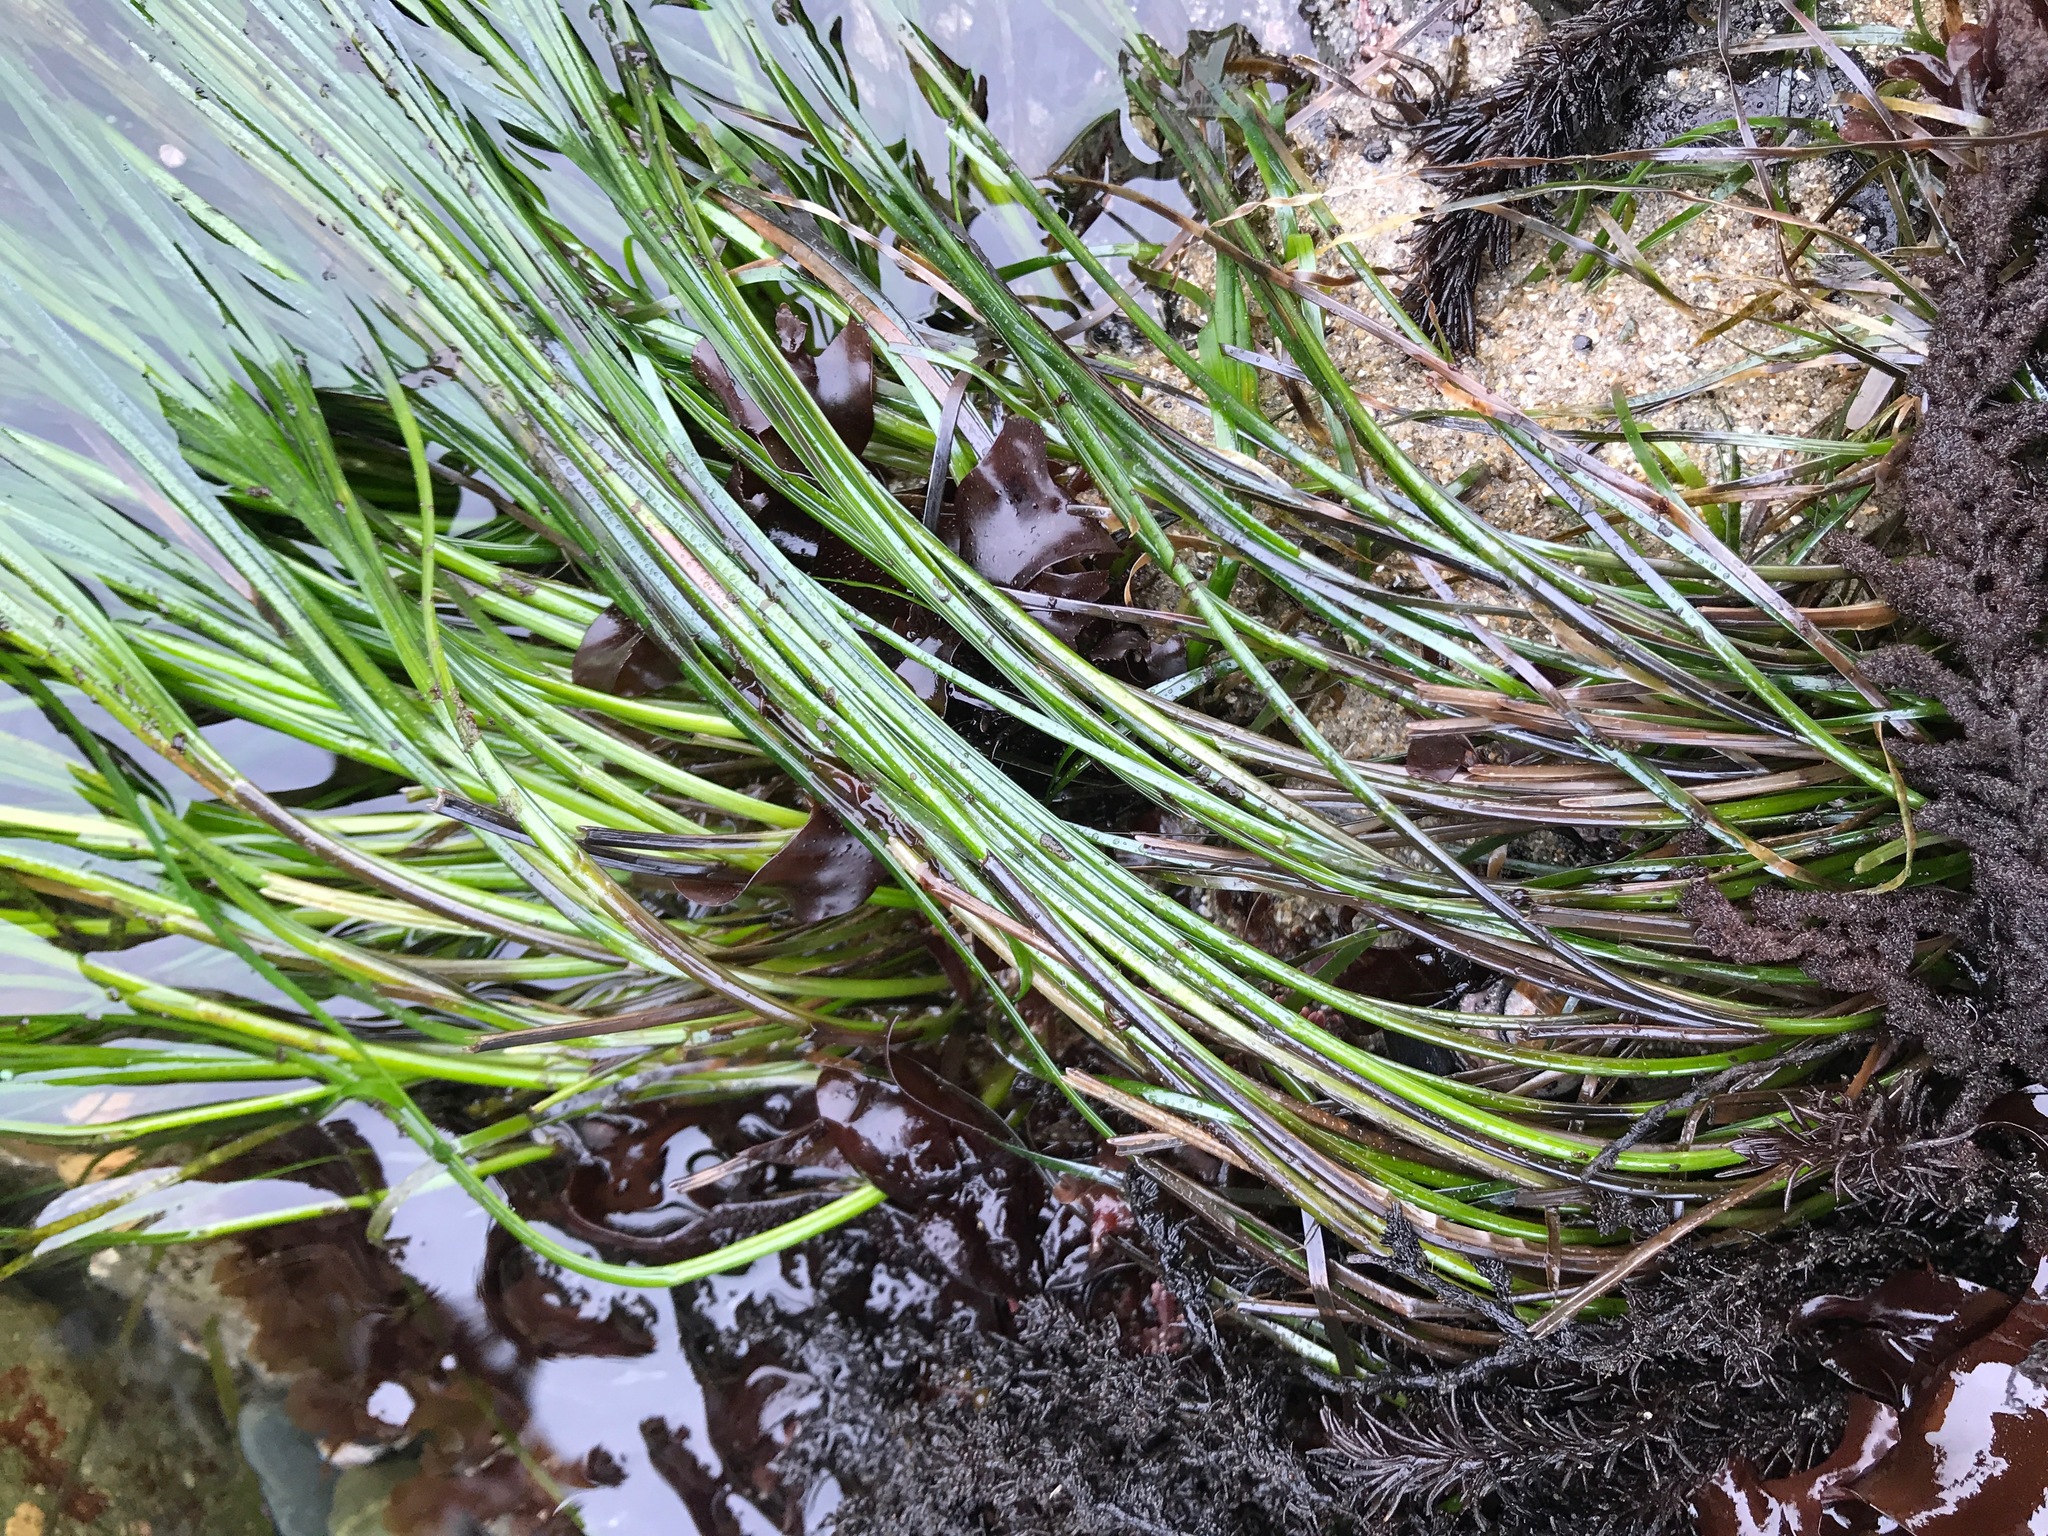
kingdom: Plantae
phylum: Tracheophyta
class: Liliopsida
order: Alismatales
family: Zosteraceae
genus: Phyllospadix
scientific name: Phyllospadix torreyi
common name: Surfgrass
